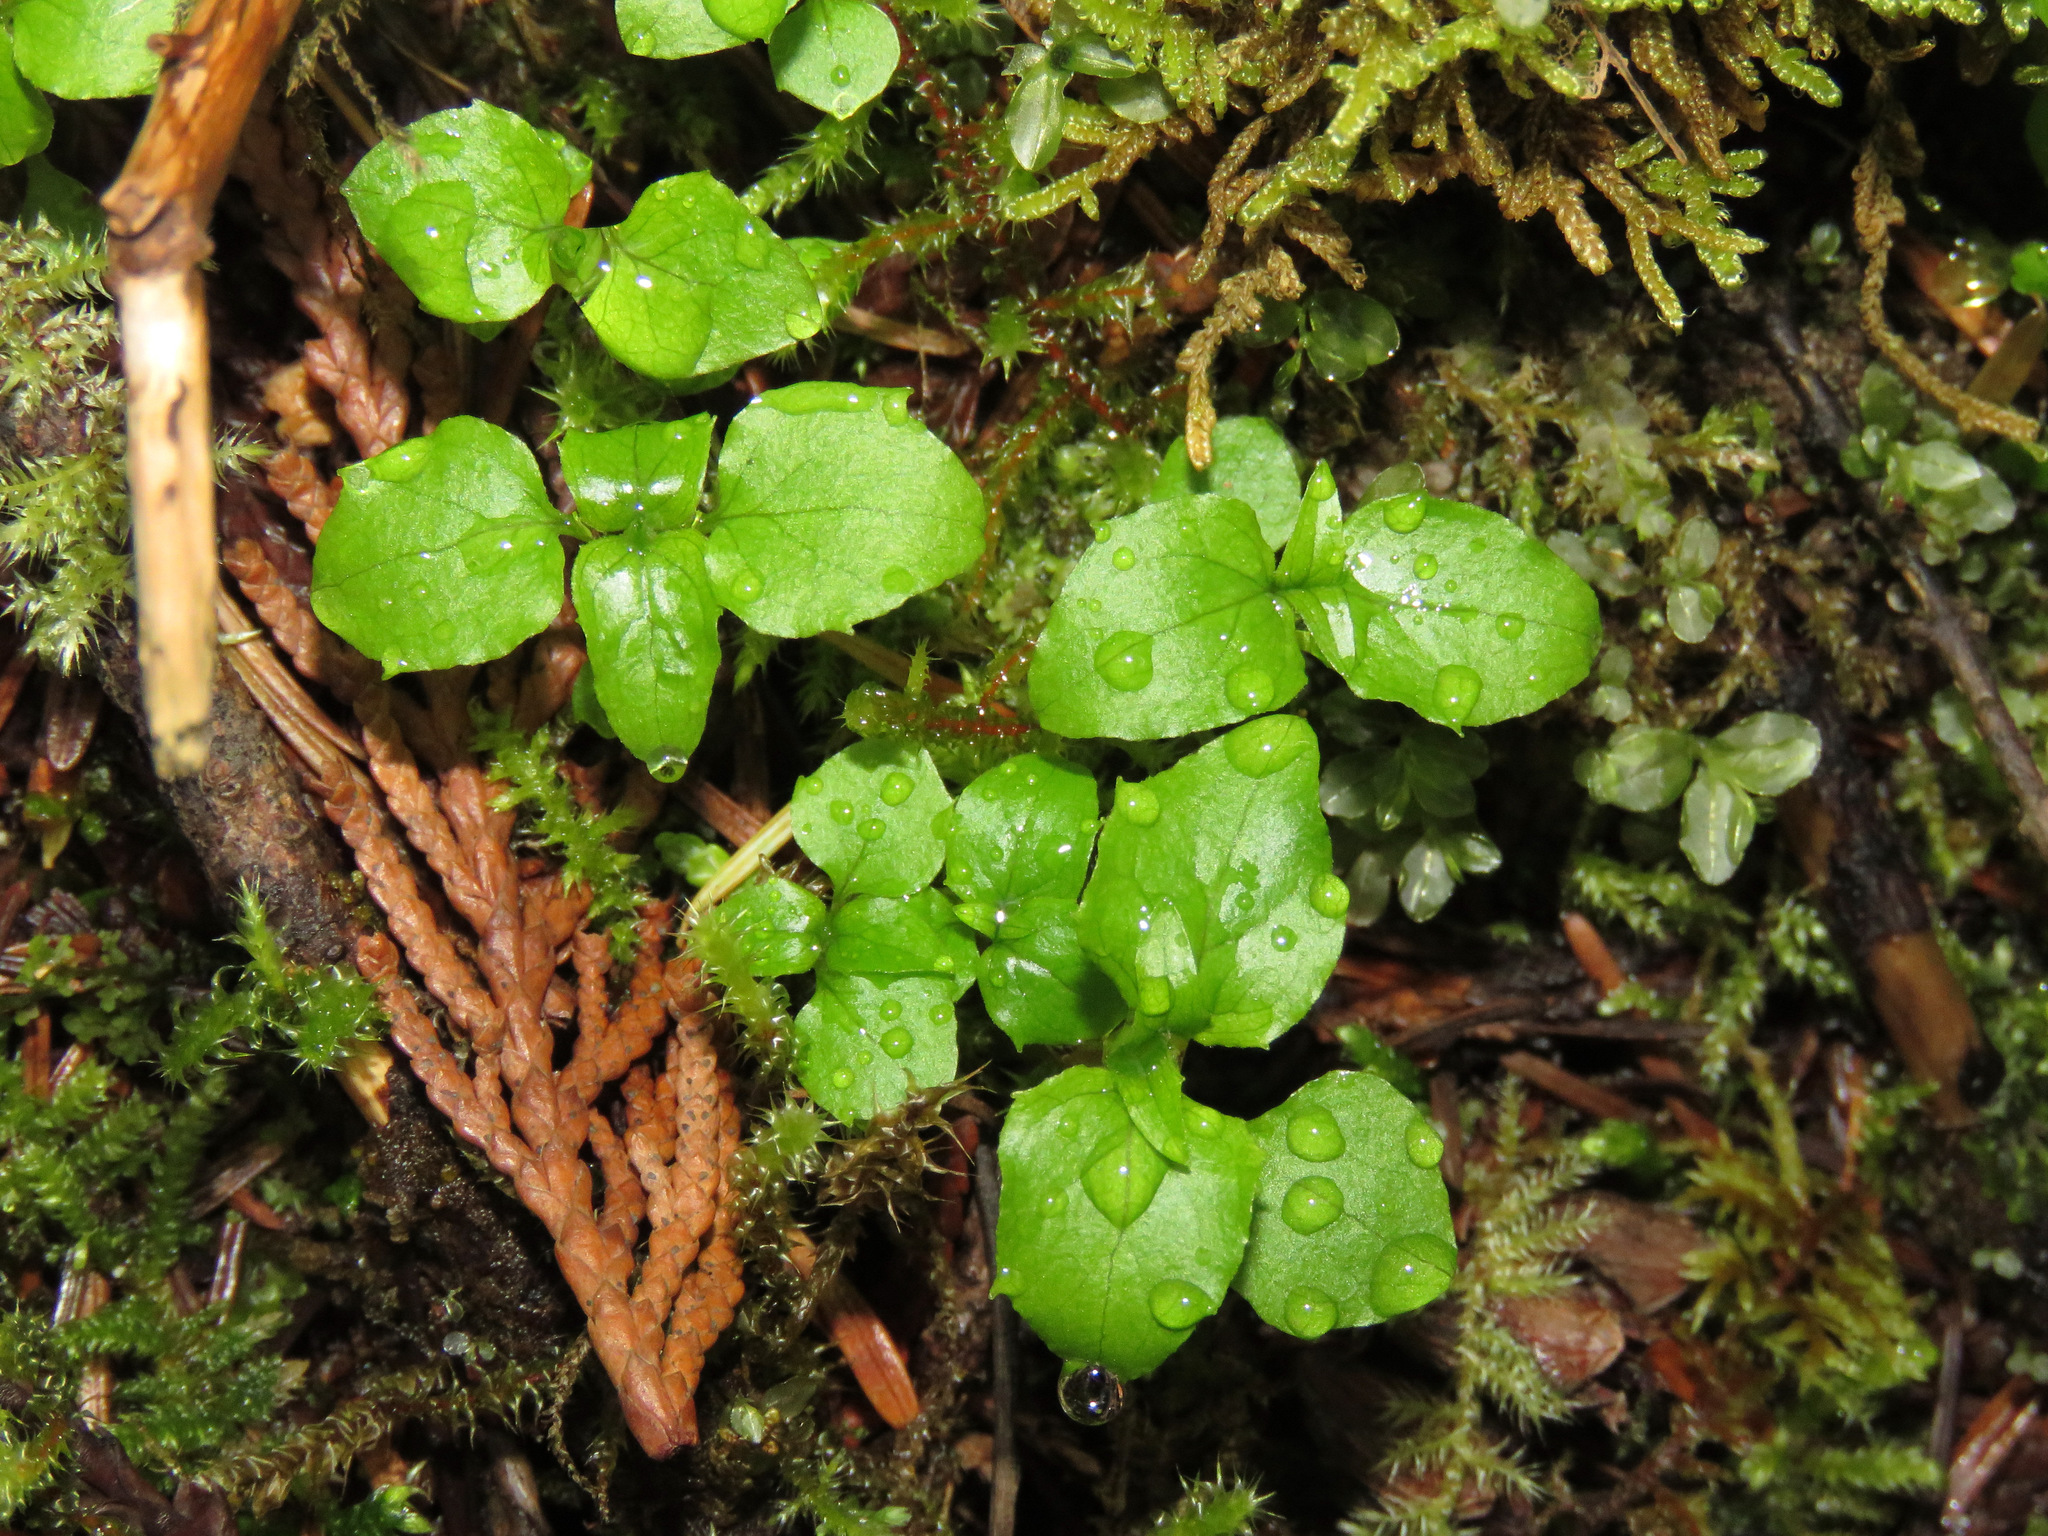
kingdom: Plantae
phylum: Tracheophyta
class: Magnoliopsida
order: Myrtales
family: Onagraceae
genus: Circaea
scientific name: Circaea alpina
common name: Alpine enchanter's-nightshade
